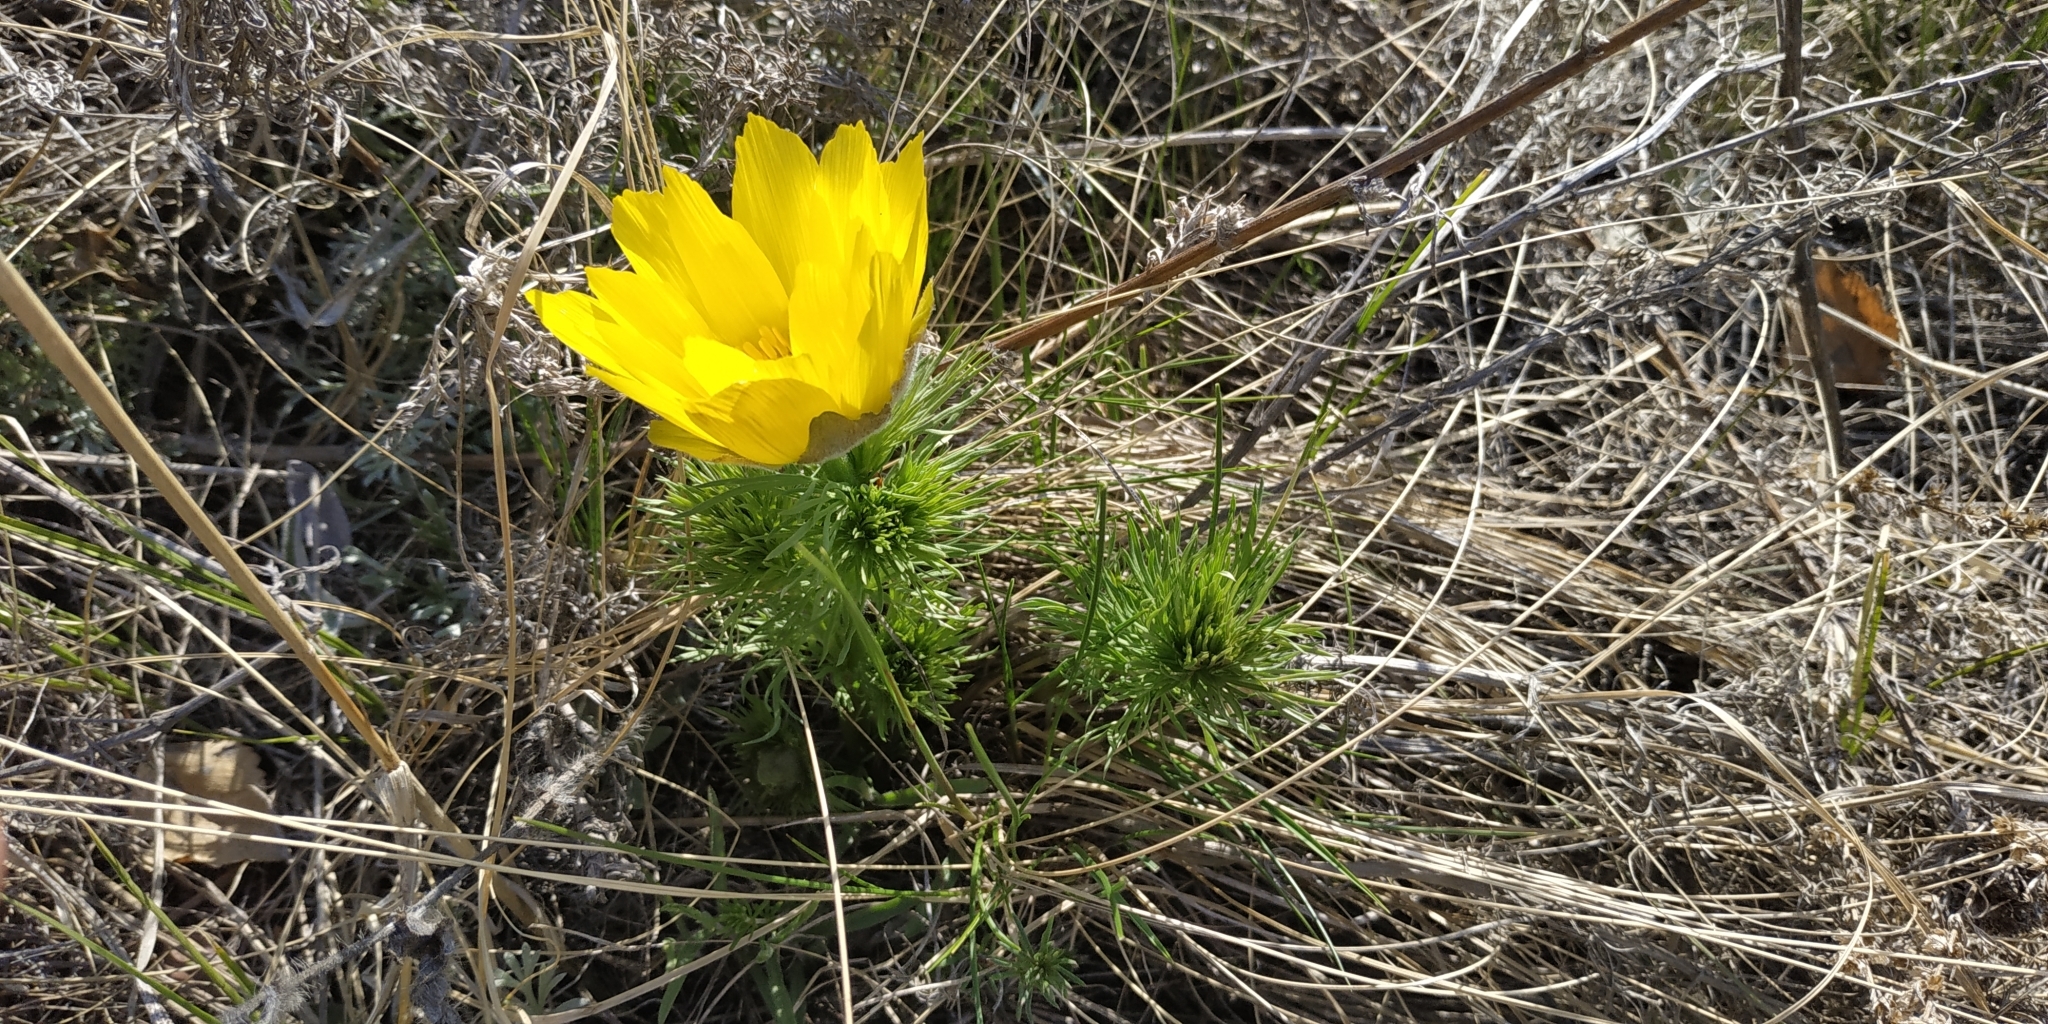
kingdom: Plantae
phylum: Tracheophyta
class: Magnoliopsida
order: Ranunculales
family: Ranunculaceae
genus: Adonis
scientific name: Adonis vernalis
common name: Yellow pheasants-eye
